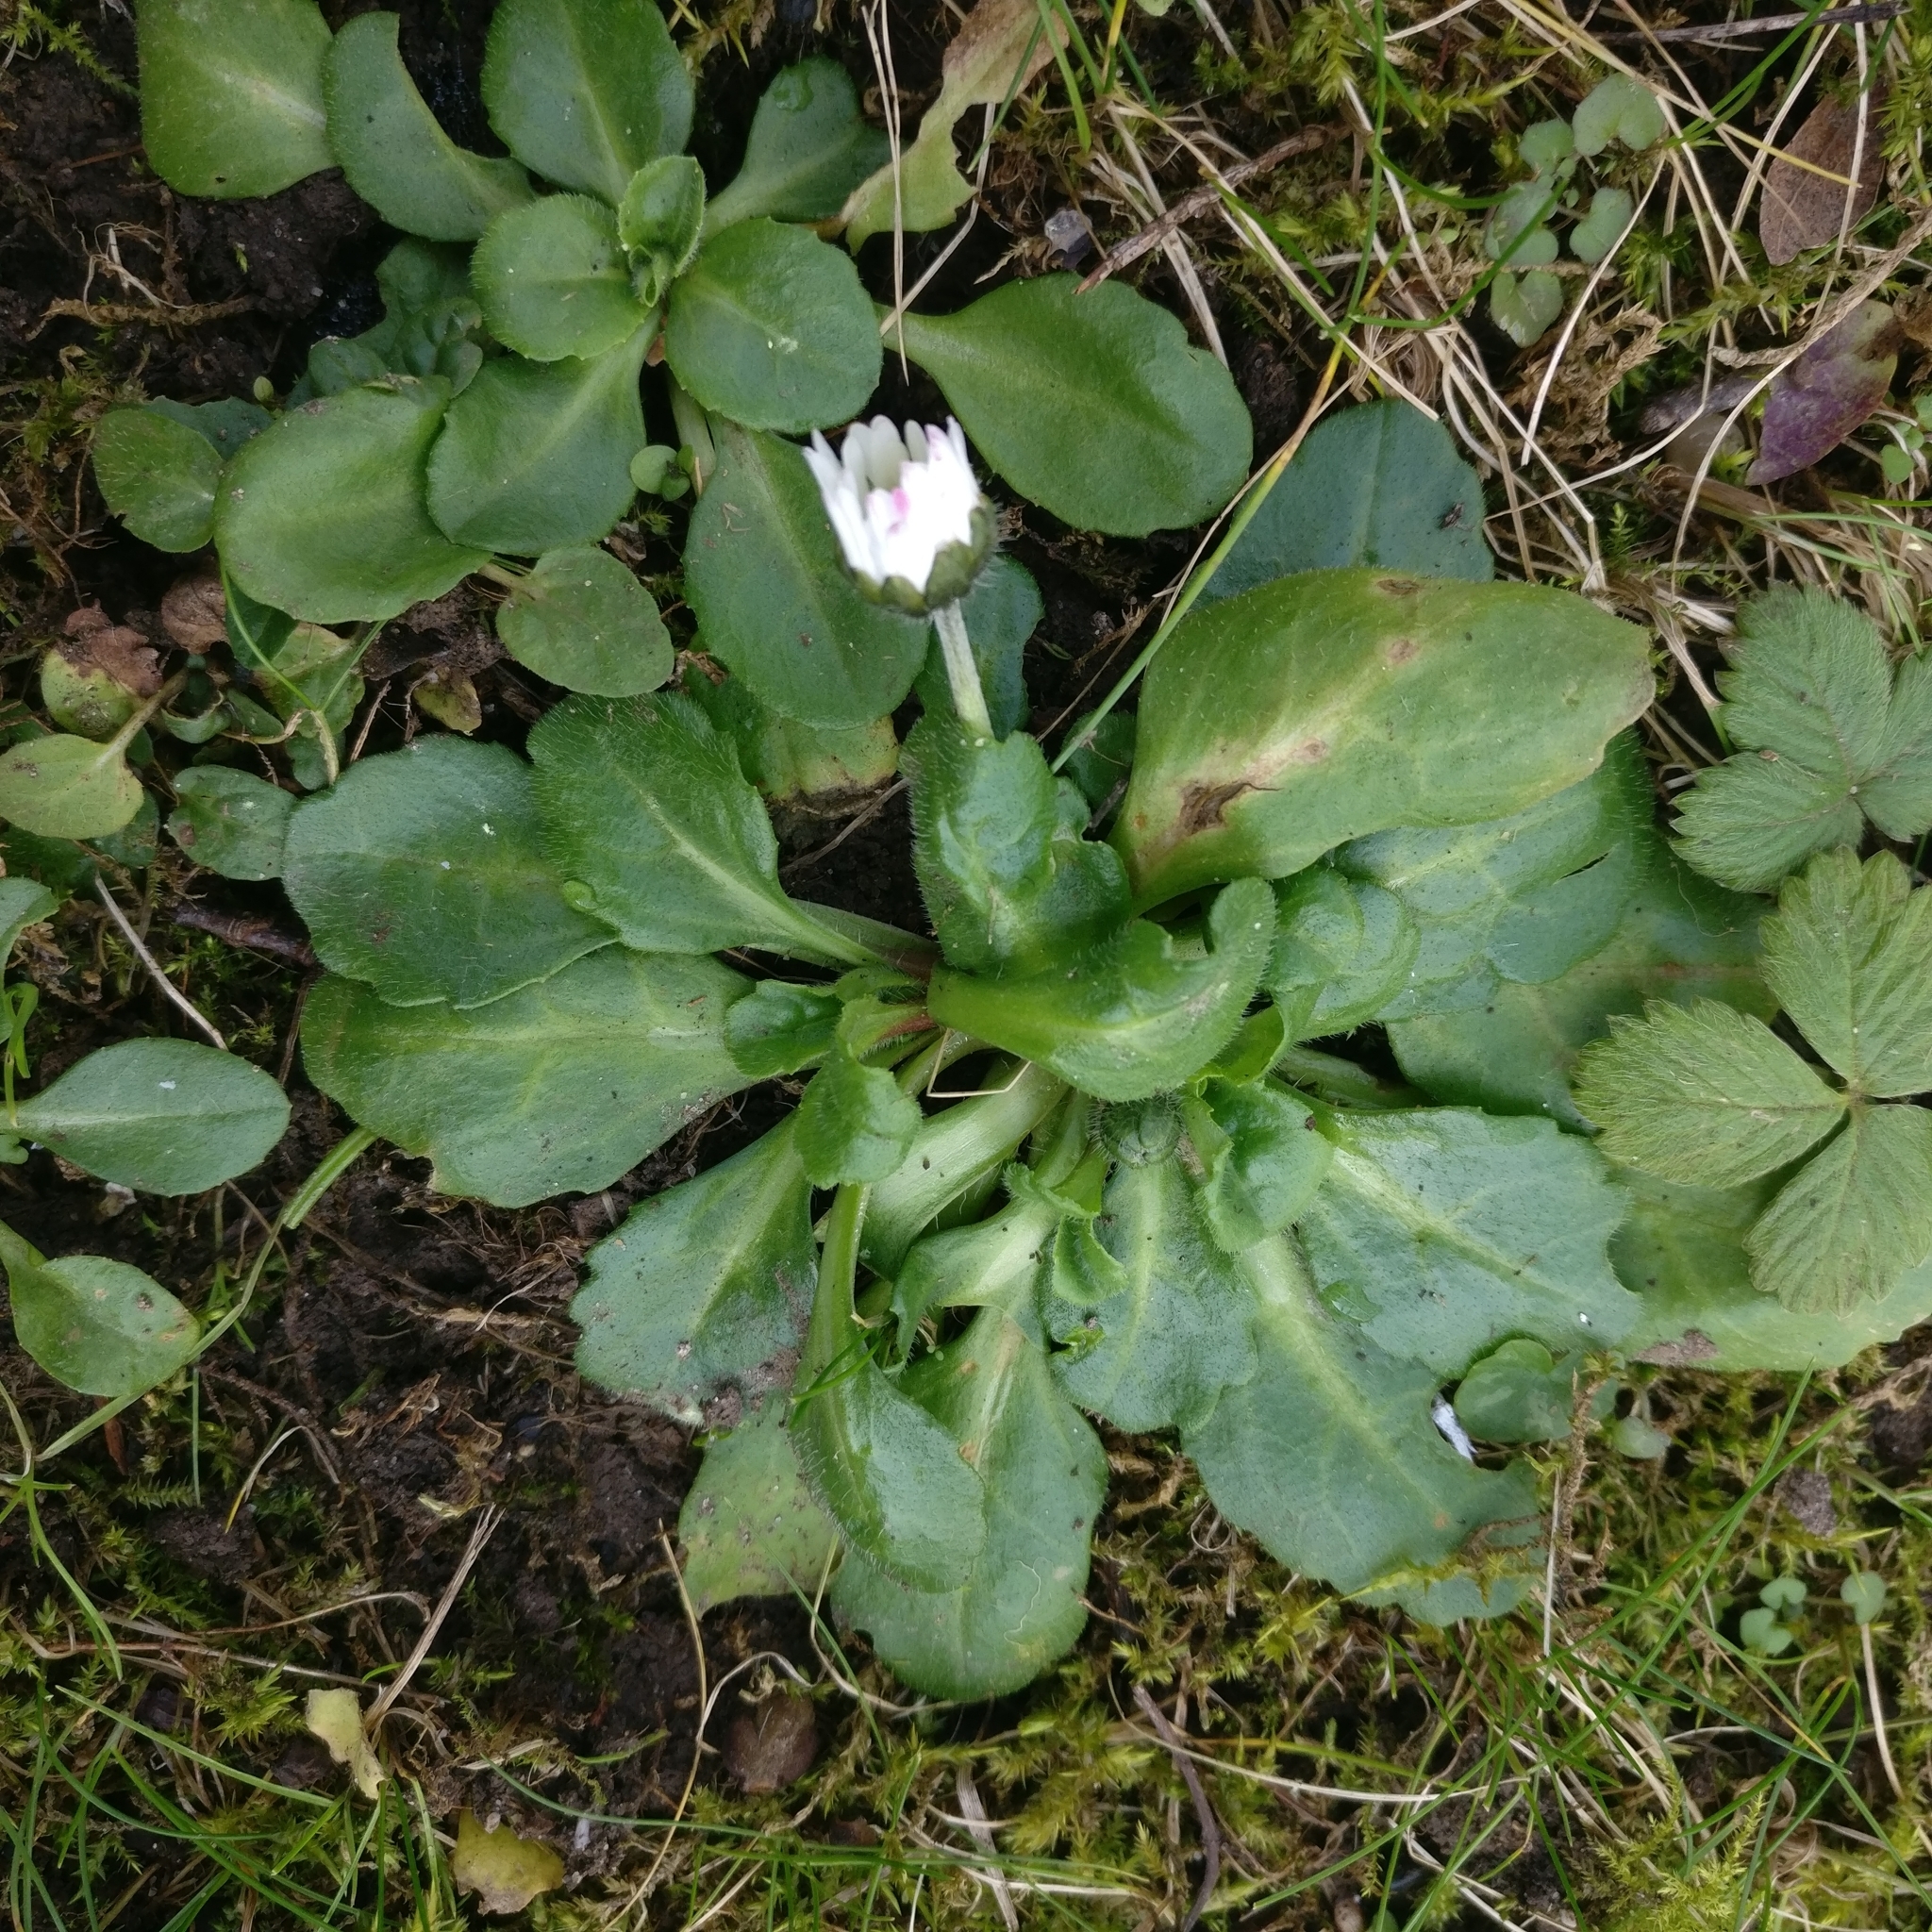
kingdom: Plantae
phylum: Tracheophyta
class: Magnoliopsida
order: Asterales
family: Asteraceae
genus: Bellis
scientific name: Bellis perennis
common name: Lawndaisy
